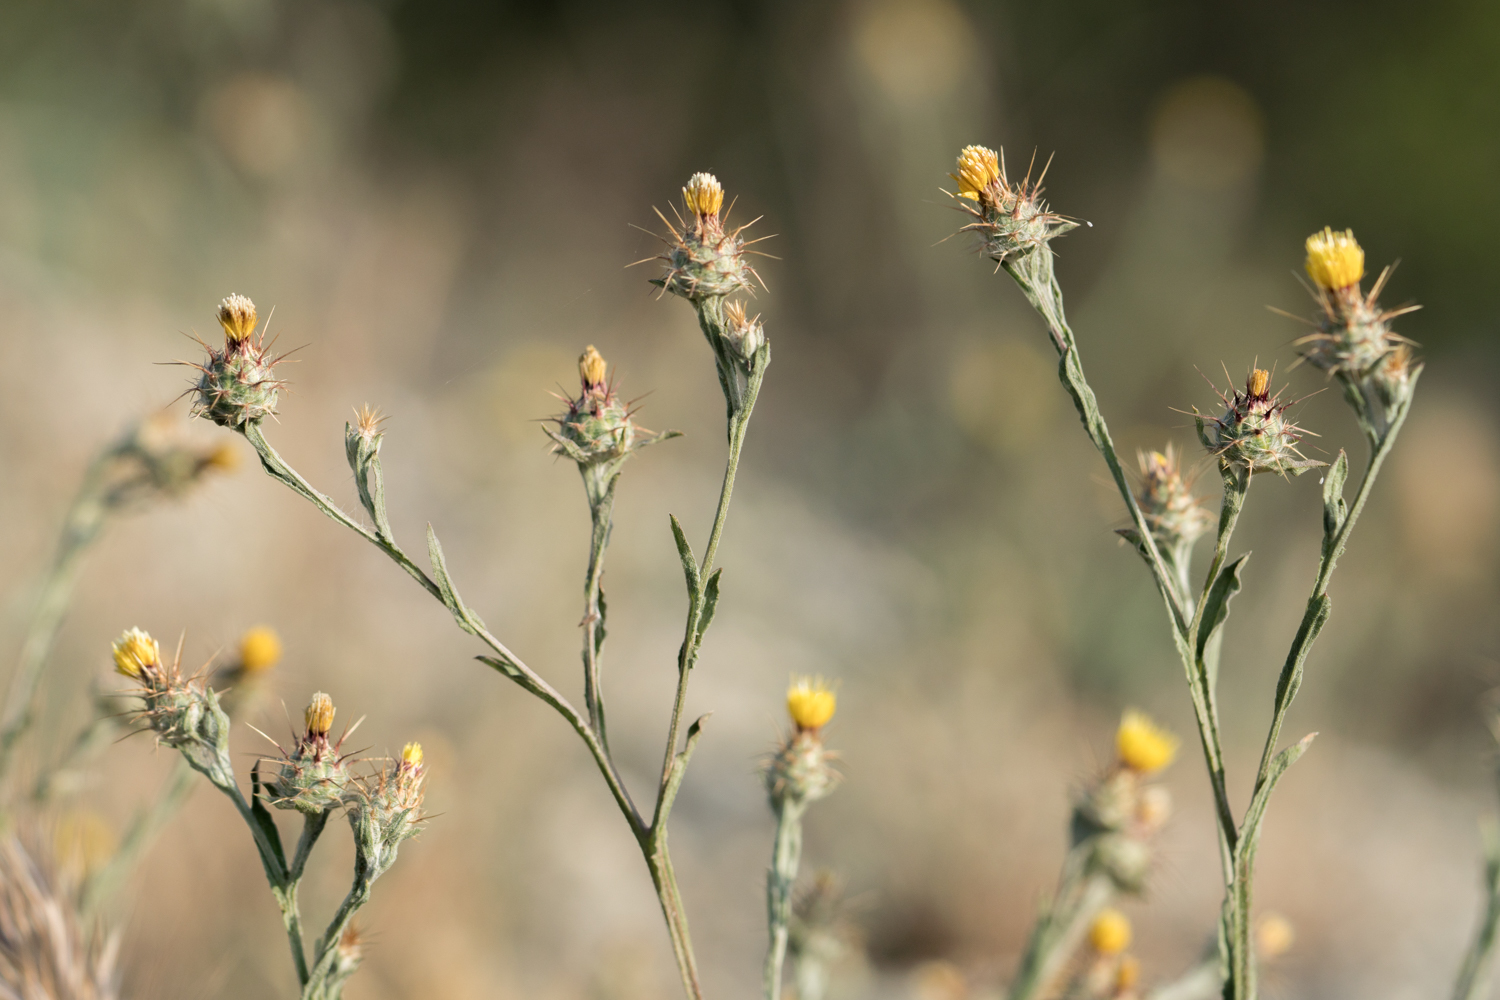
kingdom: Plantae
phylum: Tracheophyta
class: Magnoliopsida
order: Asterales
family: Asteraceae
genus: Centaurea
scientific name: Centaurea melitensis
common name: Maltese star-thistle
